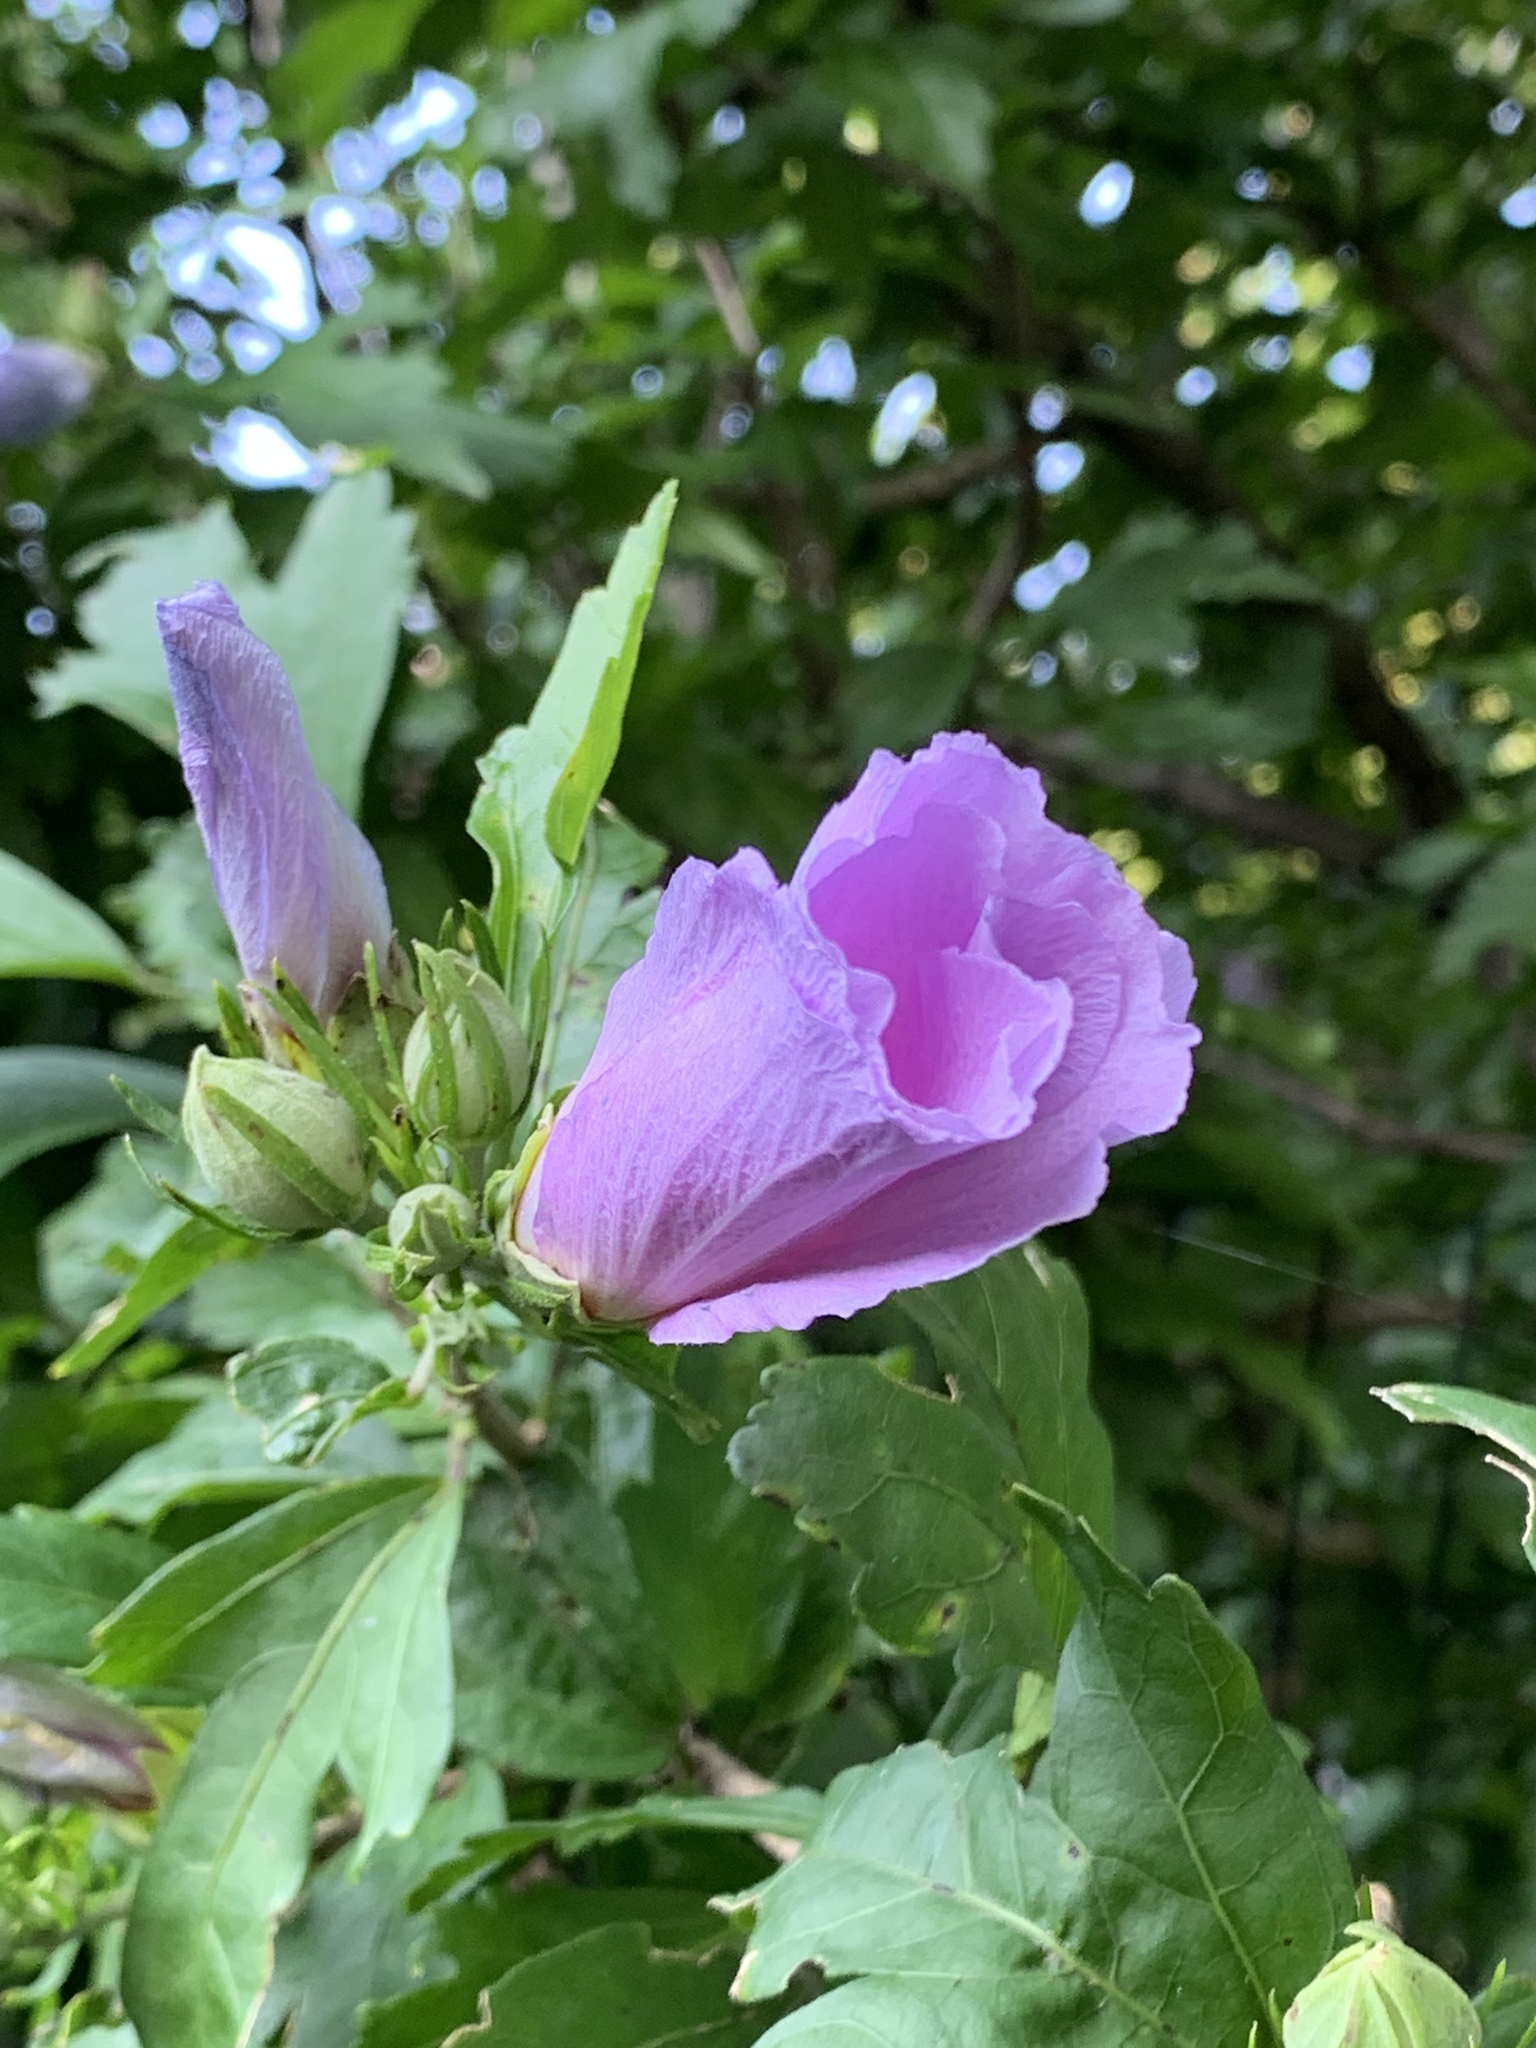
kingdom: Plantae
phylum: Tracheophyta
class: Magnoliopsida
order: Malvales
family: Malvaceae
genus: Hibiscus
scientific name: Hibiscus syriacus
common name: Syrian ketmia
